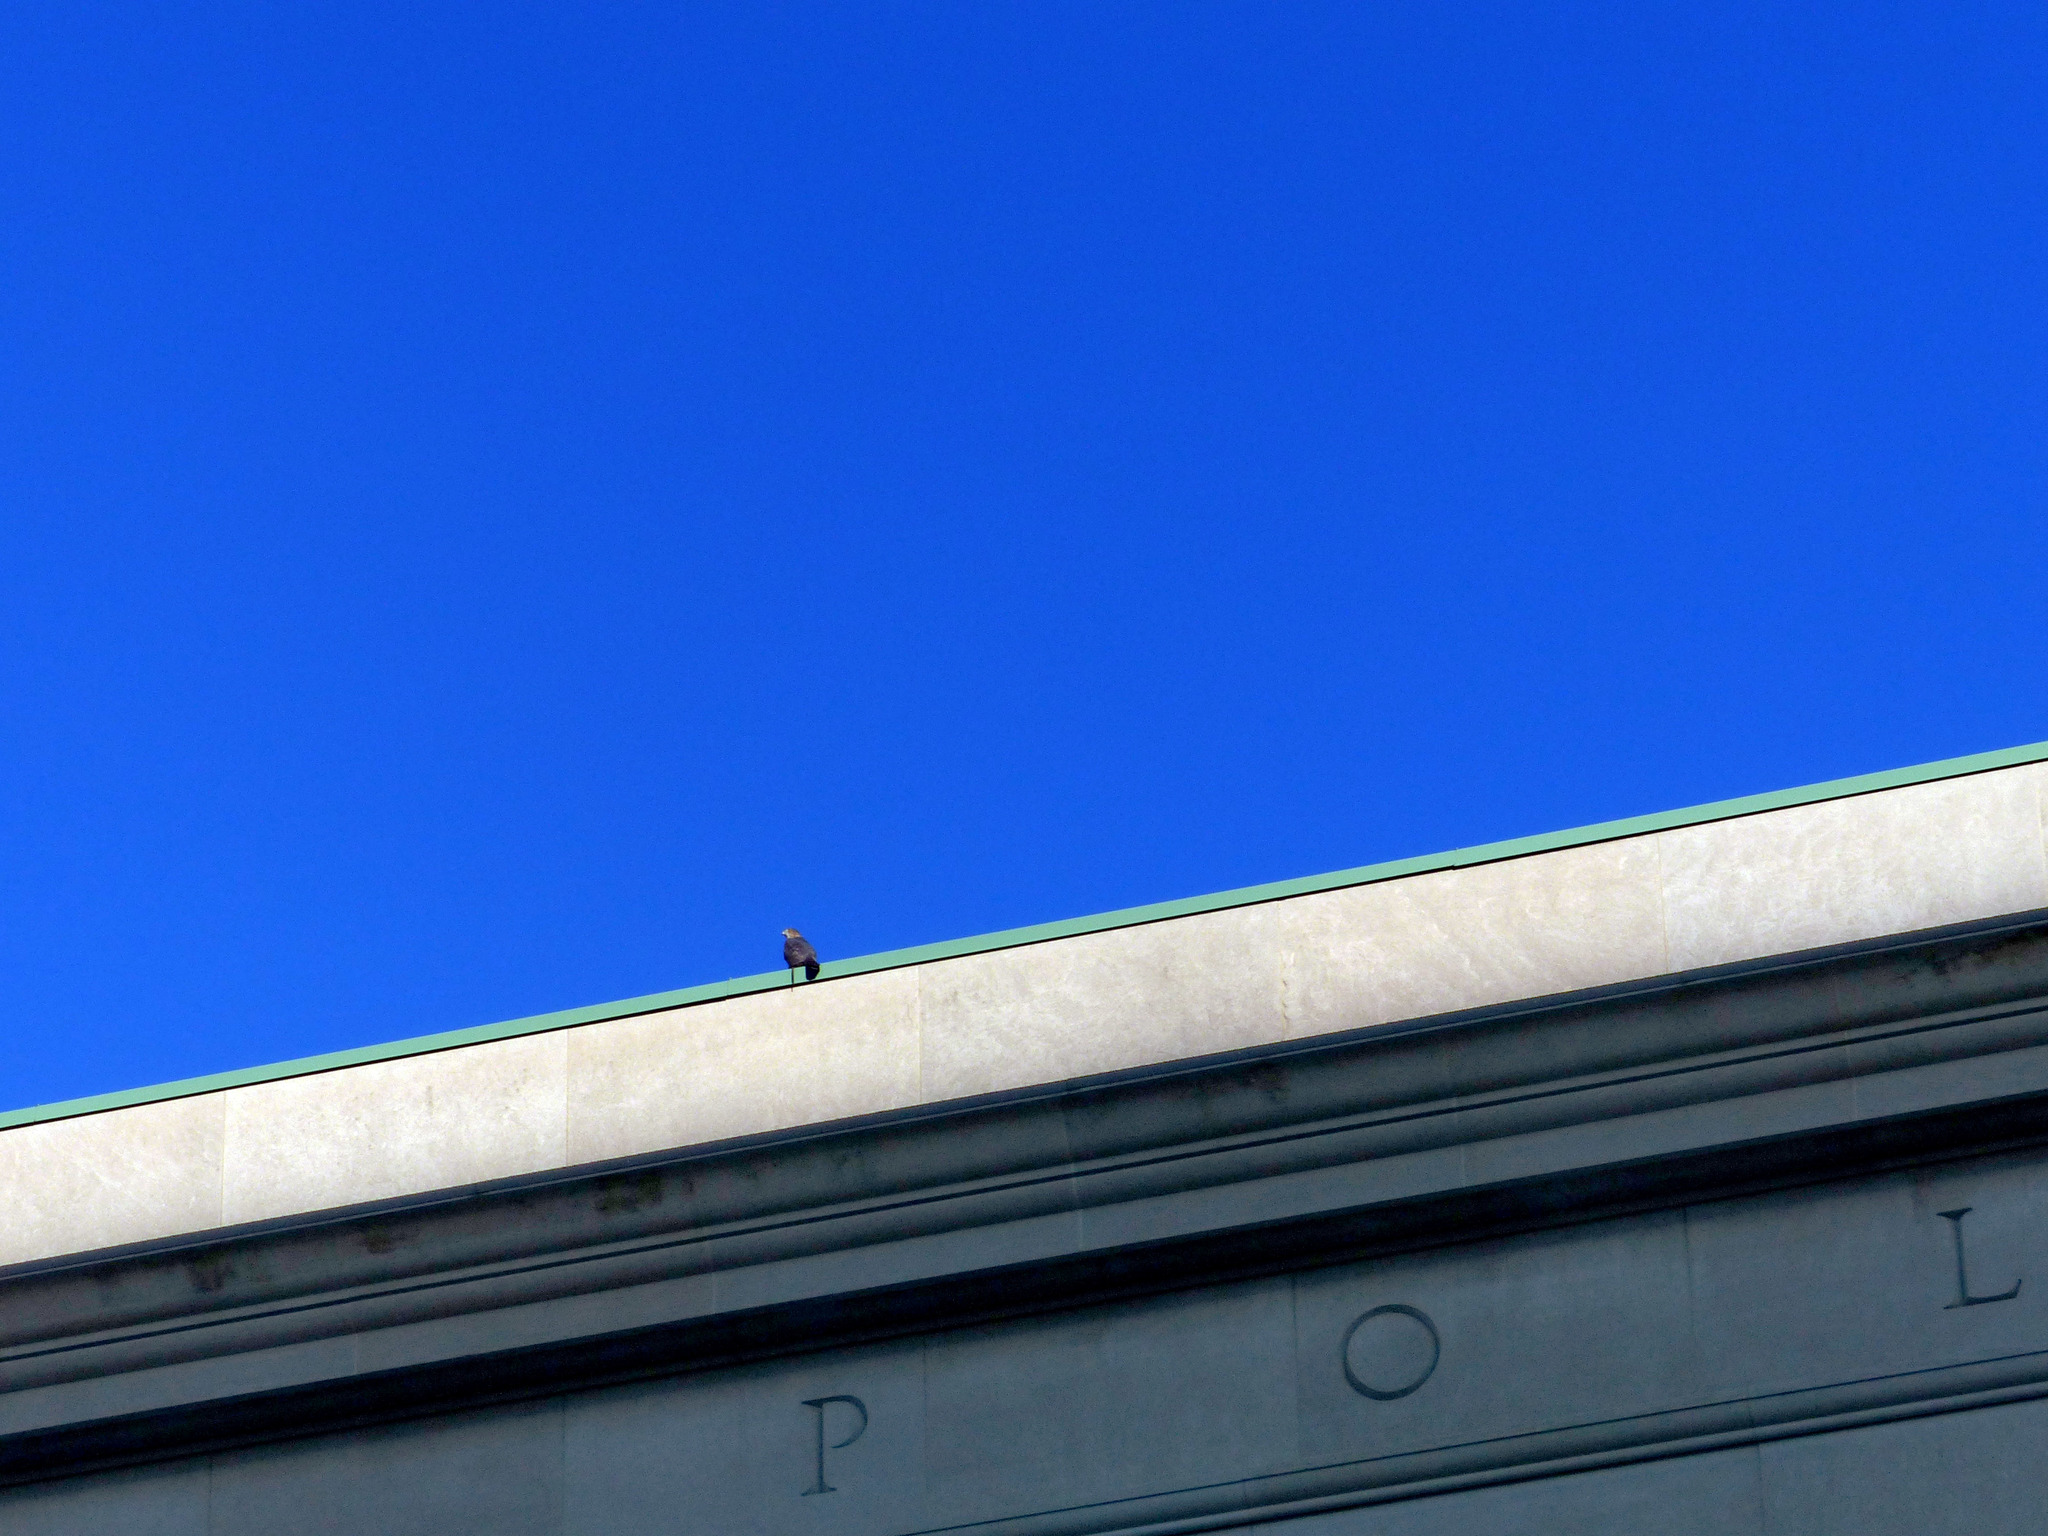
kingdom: Animalia
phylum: Chordata
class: Aves
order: Accipitriformes
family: Accipitridae
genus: Accipiter
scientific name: Accipiter cooperii
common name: Cooper's hawk
